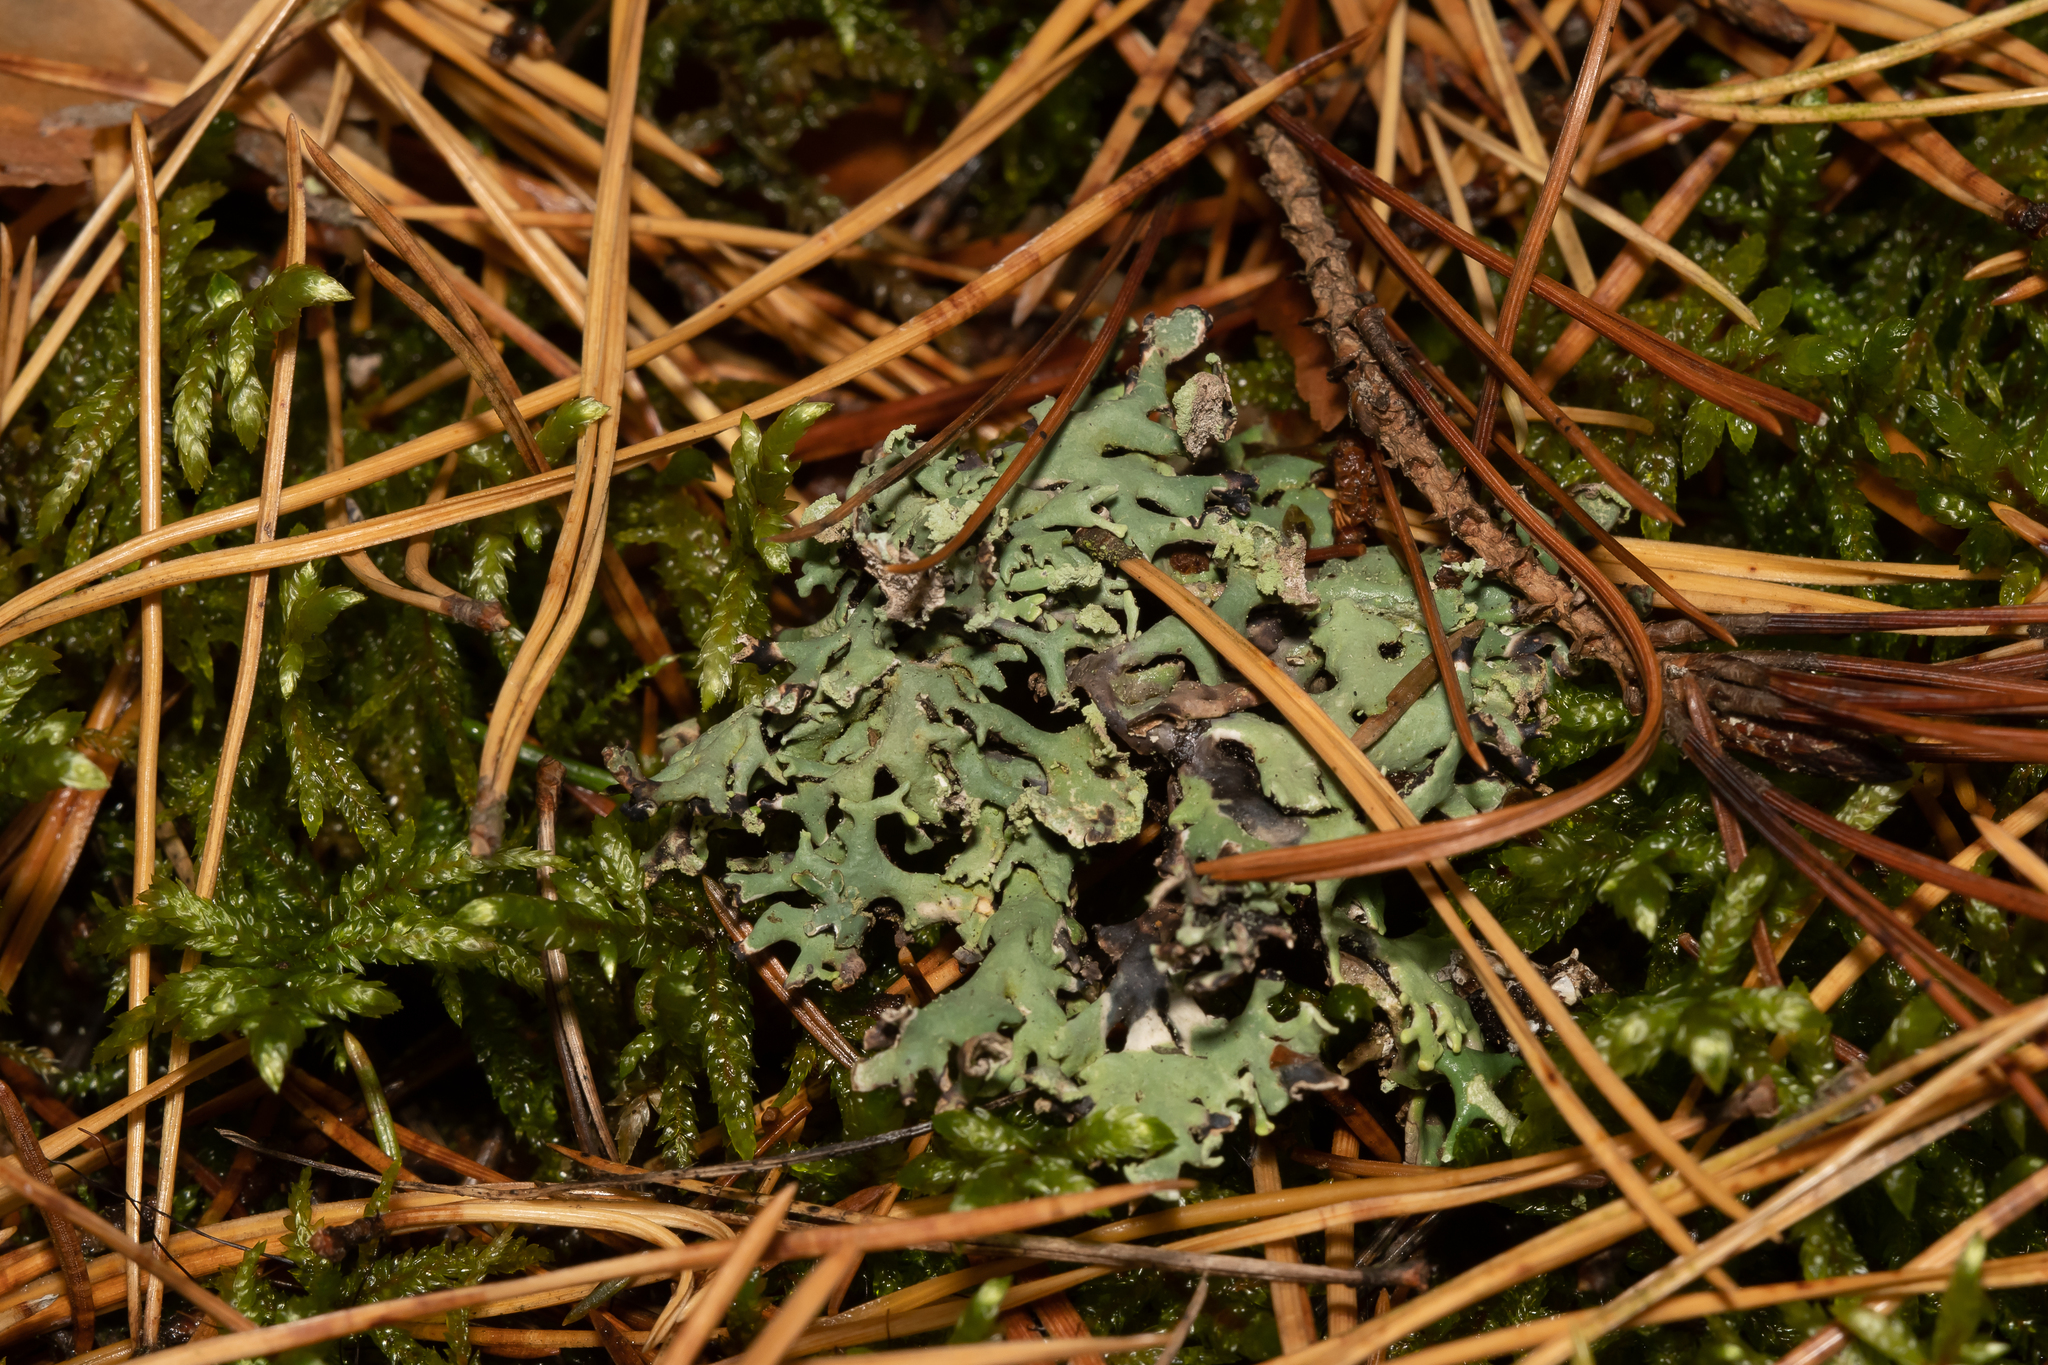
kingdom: Fungi
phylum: Ascomycota
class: Lecanoromycetes
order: Lecanorales
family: Parmeliaceae
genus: Hypogymnia
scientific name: Hypogymnia physodes
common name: Dark crottle
